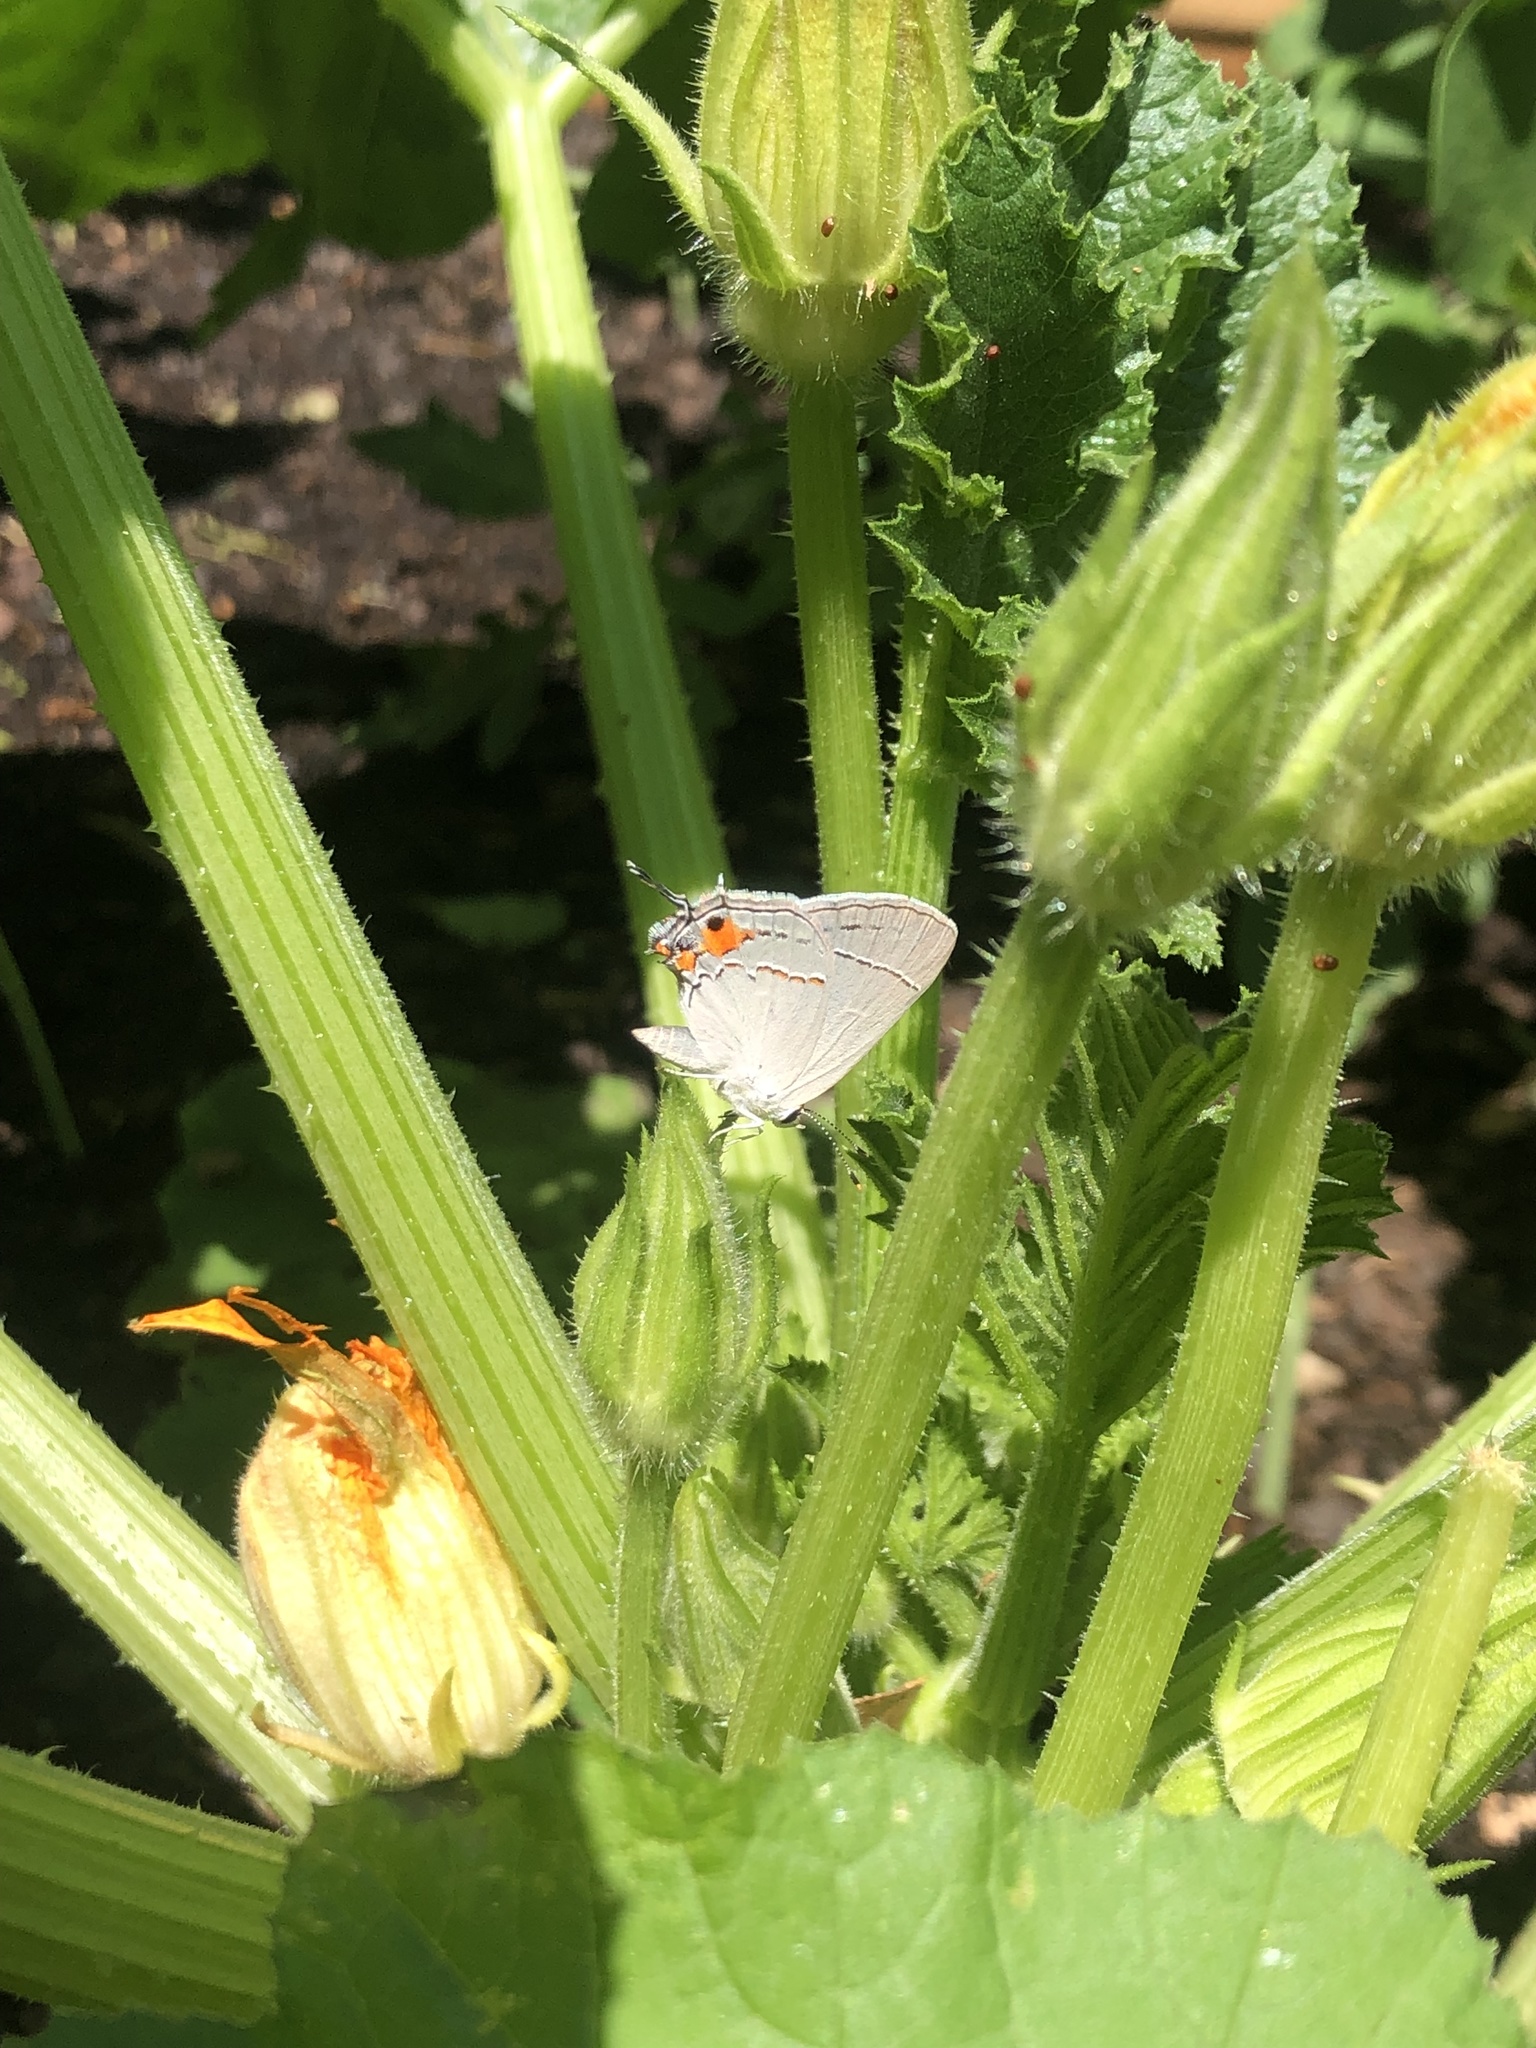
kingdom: Animalia
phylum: Arthropoda
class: Insecta
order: Lepidoptera
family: Lycaenidae
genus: Strymon
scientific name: Strymon melinus
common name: Gray hairstreak
